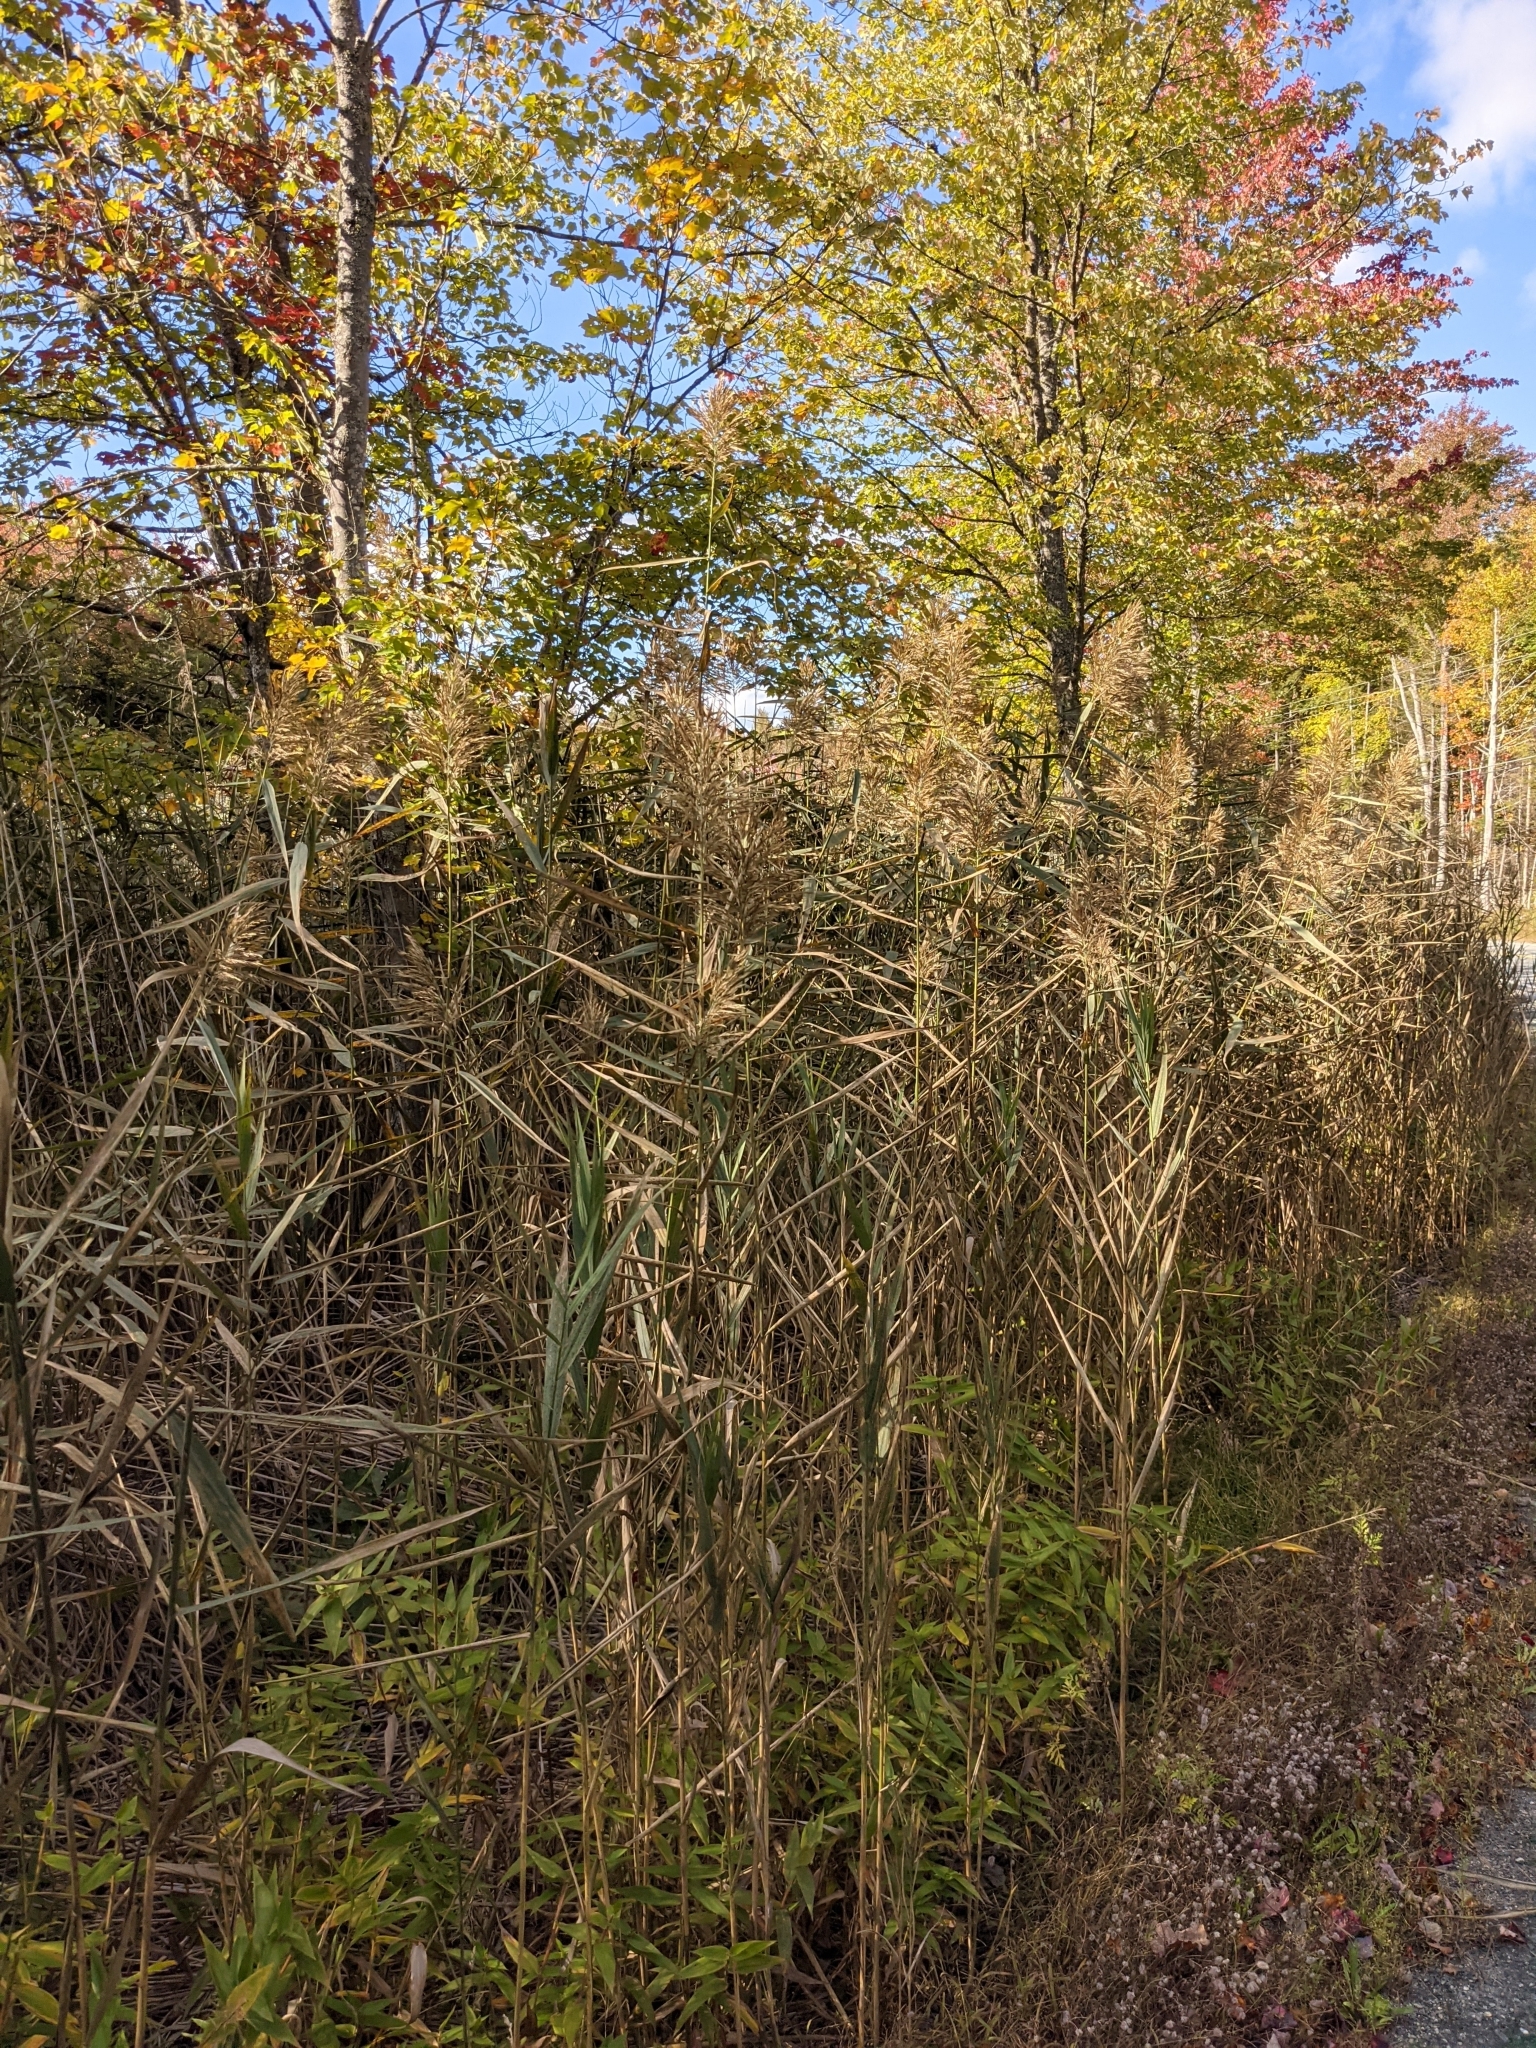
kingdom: Plantae
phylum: Tracheophyta
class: Liliopsida
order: Poales
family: Poaceae
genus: Phragmites
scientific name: Phragmites australis
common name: Common reed
